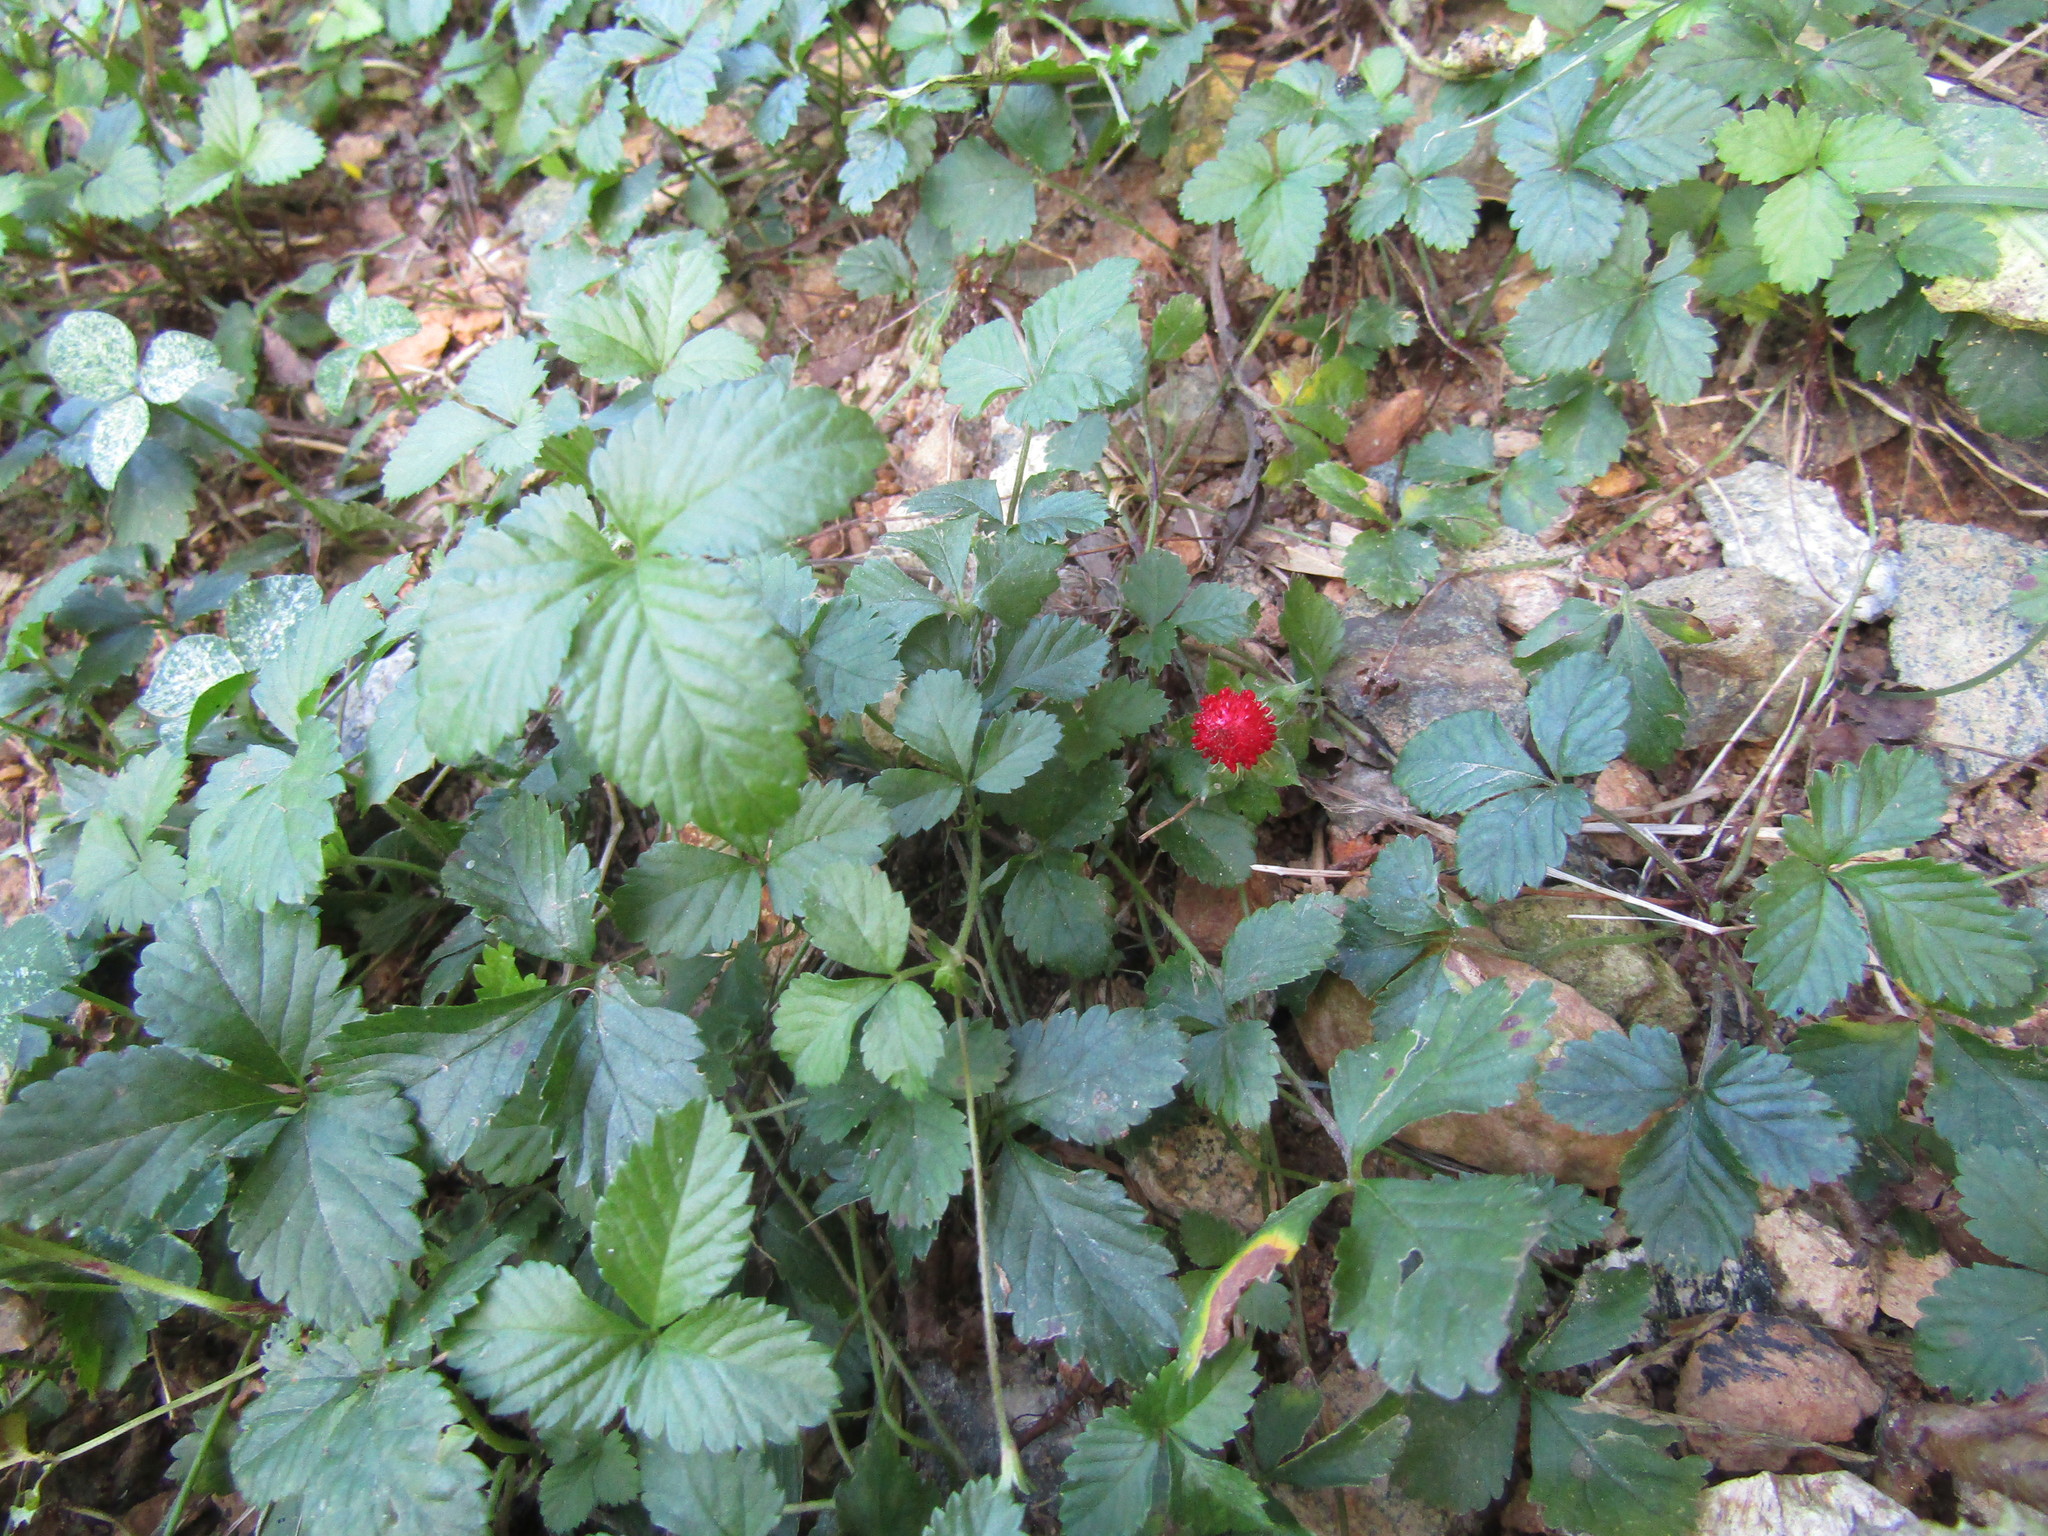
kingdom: Plantae
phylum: Tracheophyta
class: Magnoliopsida
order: Rosales
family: Rosaceae
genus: Potentilla
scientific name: Potentilla indica
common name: Yellow-flowered strawberry
